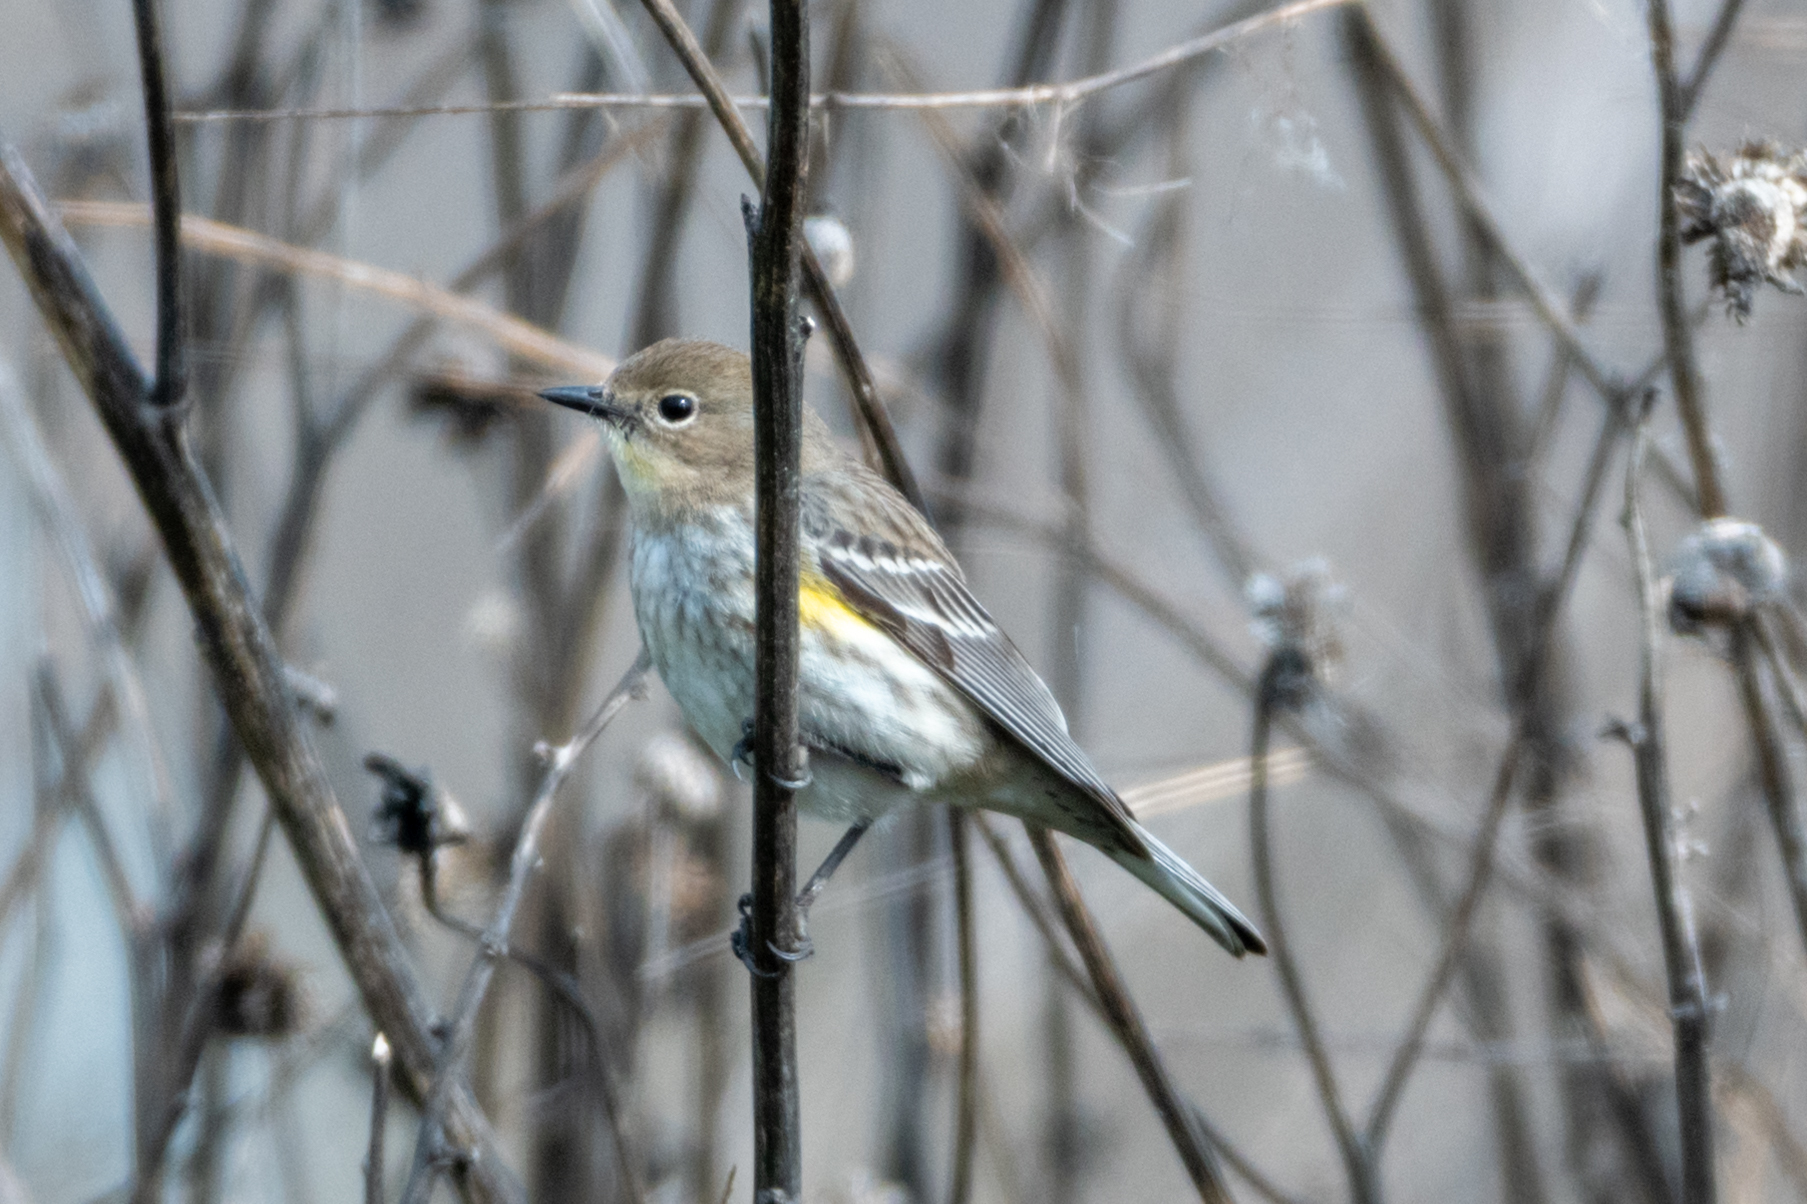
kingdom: Animalia
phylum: Chordata
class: Aves
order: Passeriformes
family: Parulidae
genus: Setophaga
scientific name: Setophaga coronata
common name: Myrtle warbler
